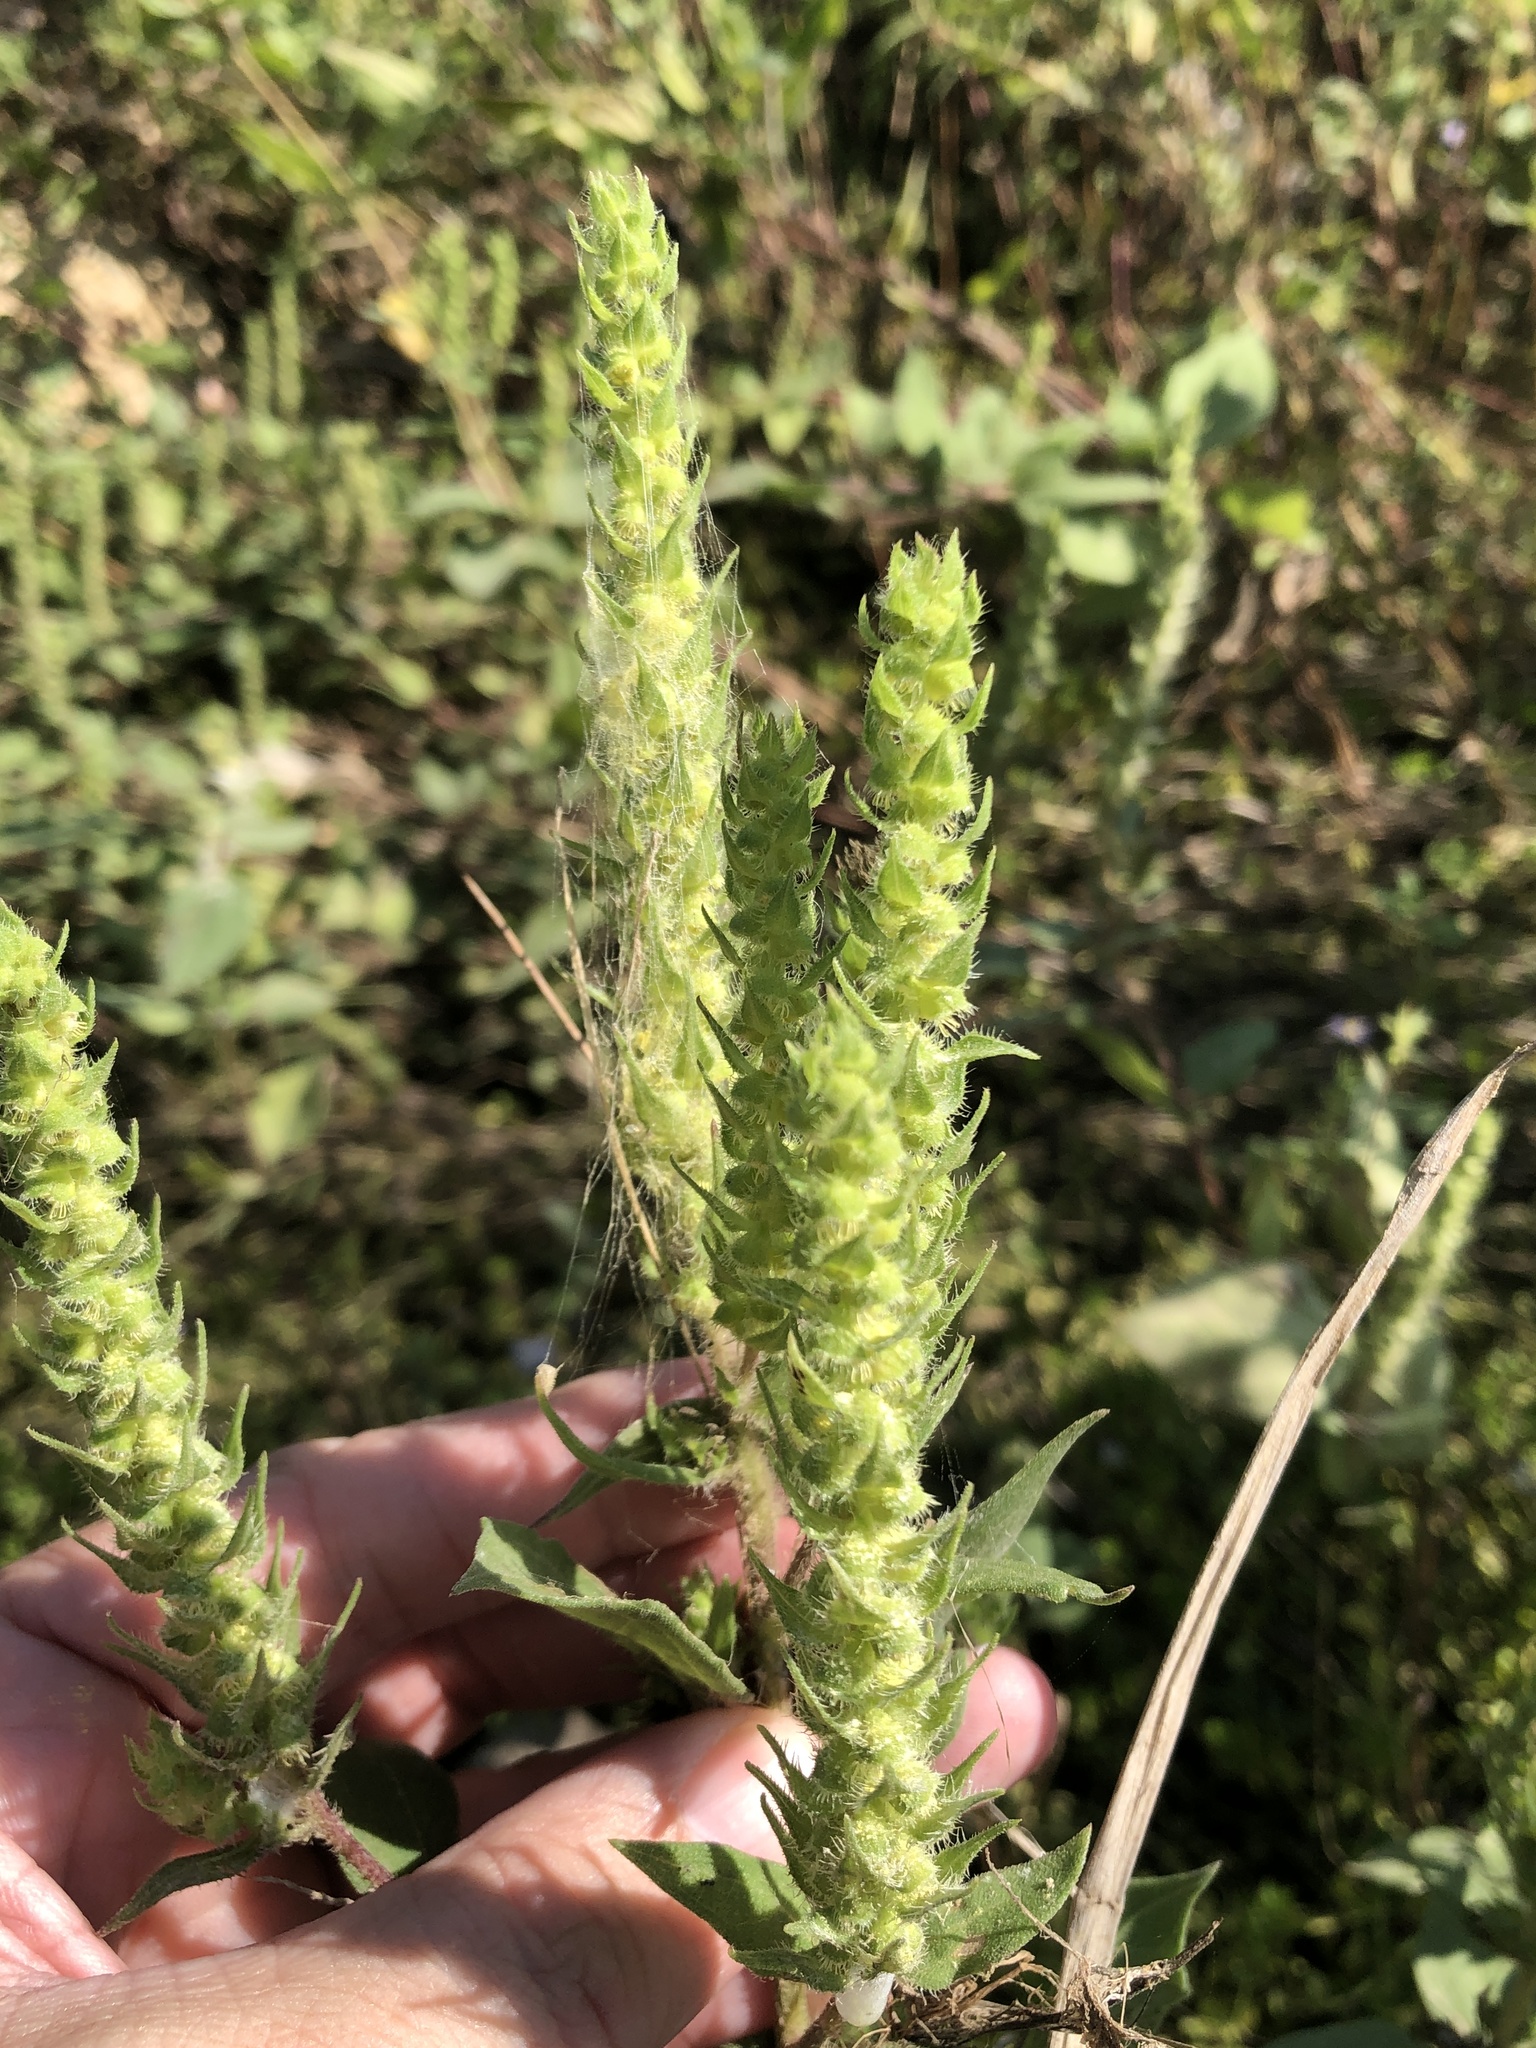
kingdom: Plantae
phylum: Tracheophyta
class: Magnoliopsida
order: Asterales
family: Asteraceae
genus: Iva
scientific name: Iva annua
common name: Marsh-elder
